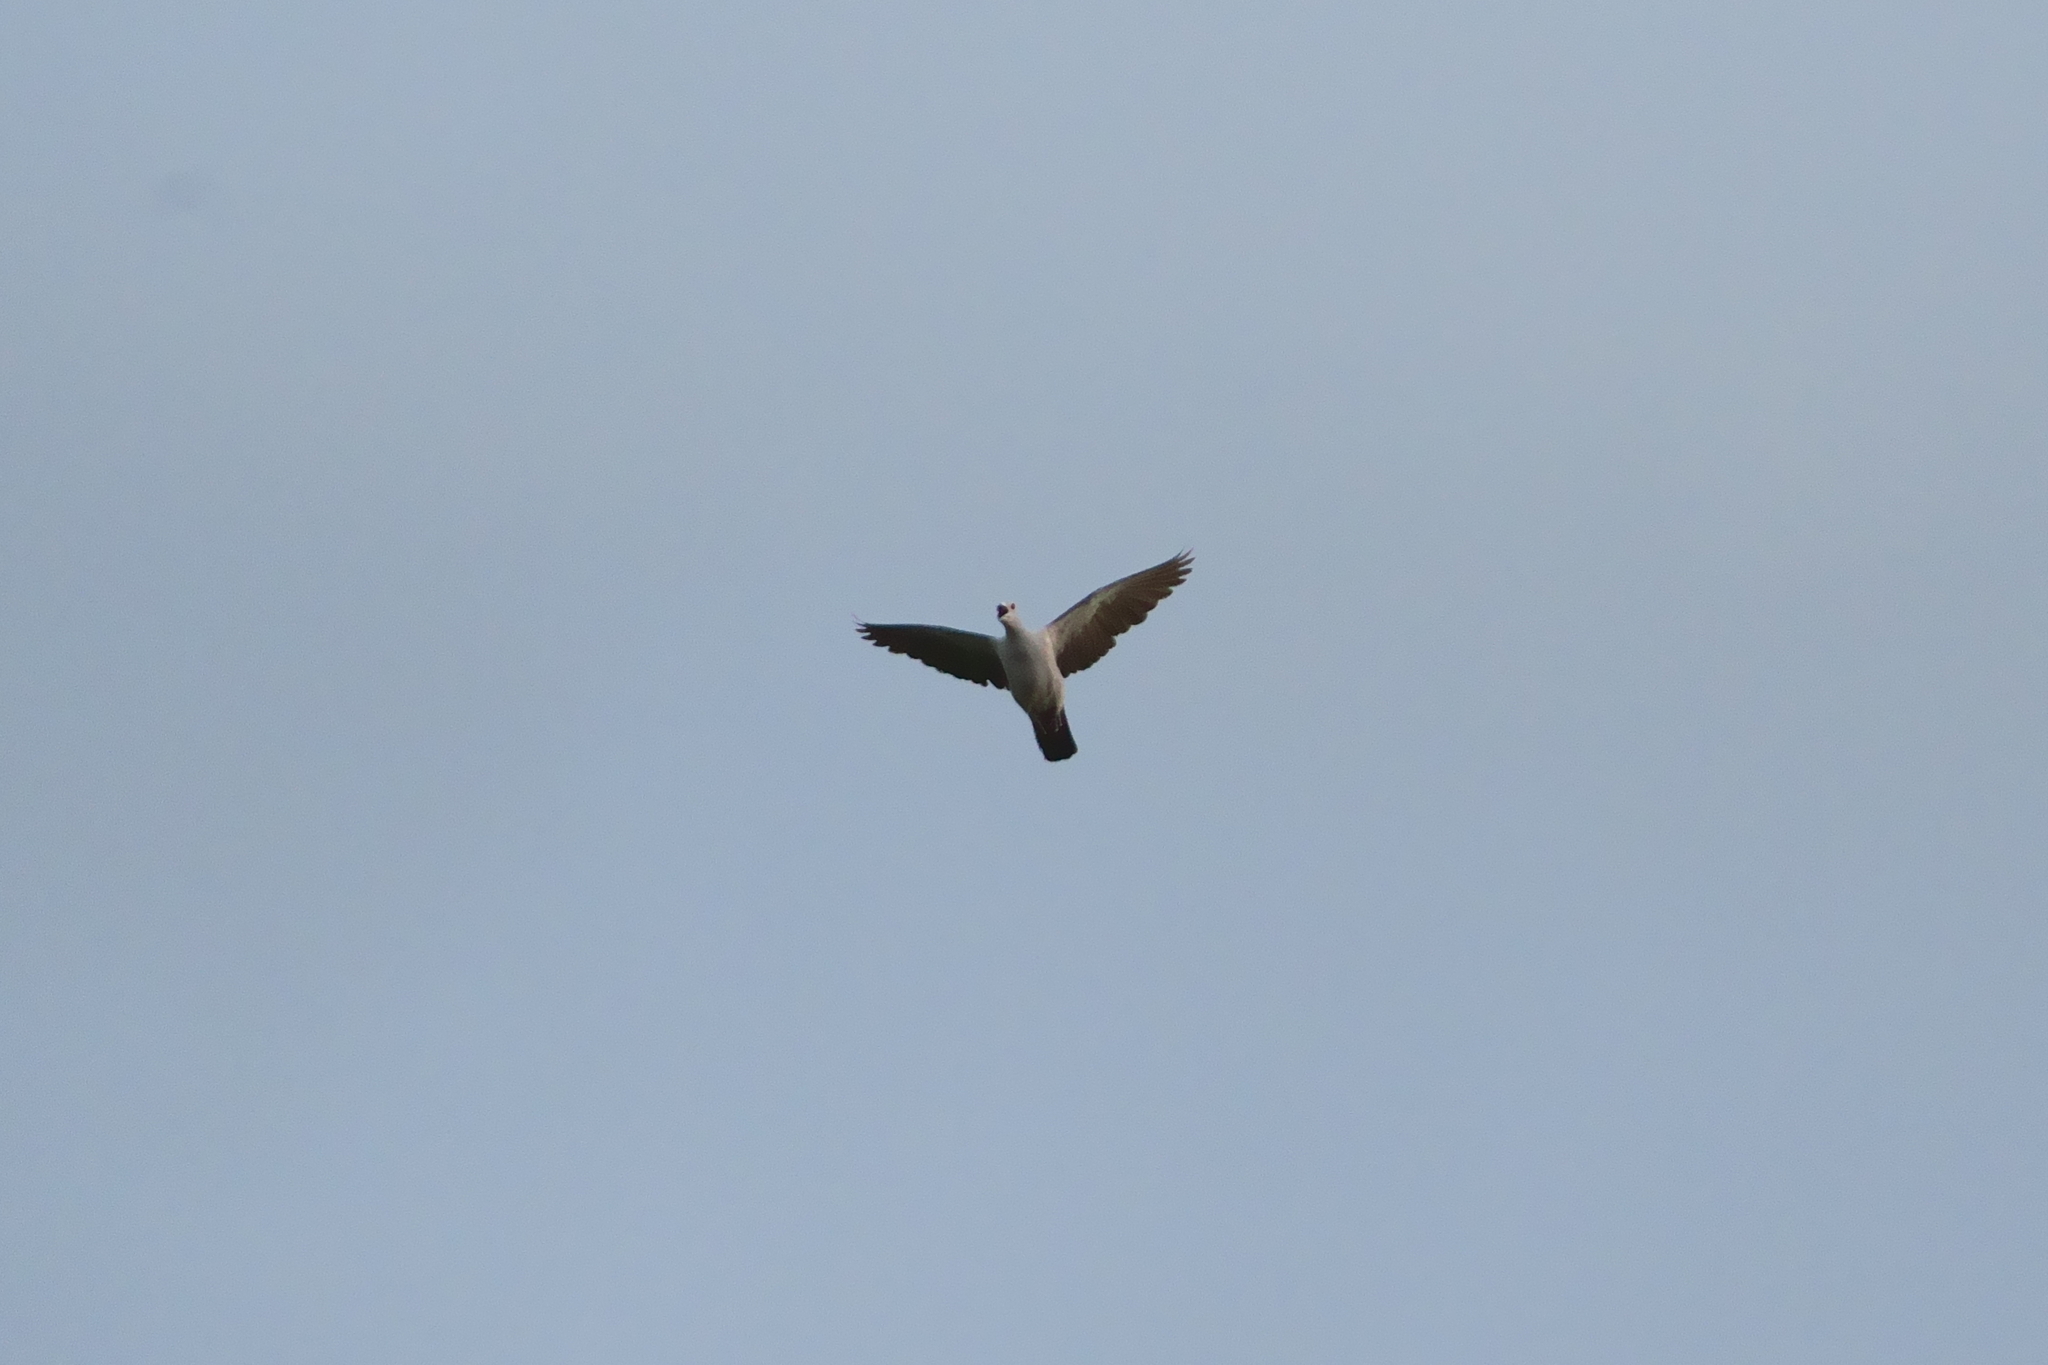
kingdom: Animalia
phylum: Chordata
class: Aves
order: Columbiformes
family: Columbidae
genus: Ducula
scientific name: Ducula aenea
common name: Green imperial pigeon
